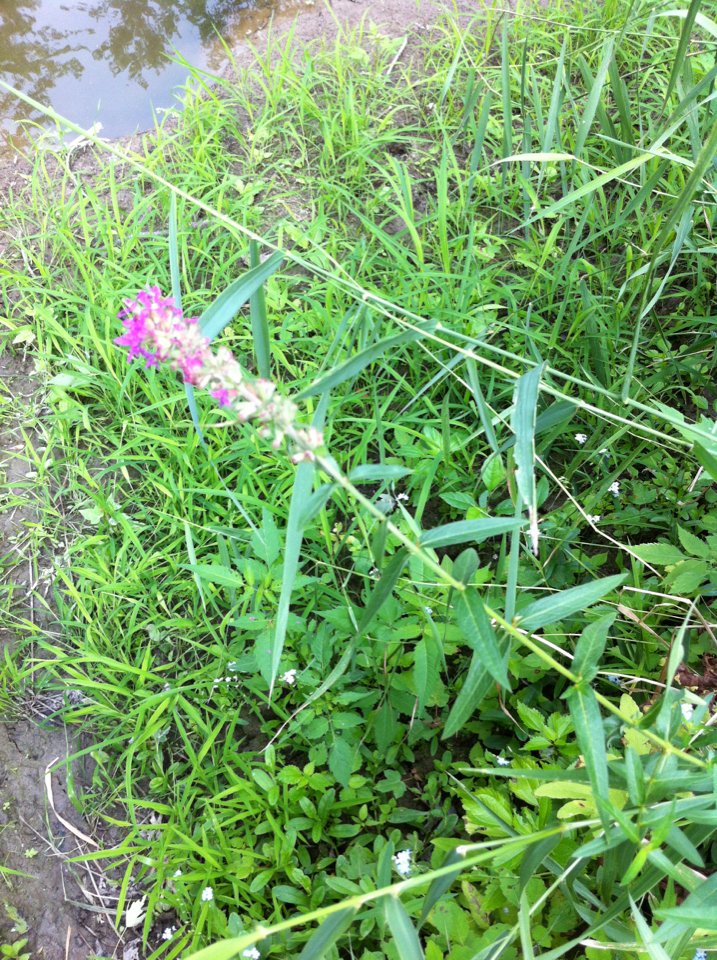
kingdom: Plantae
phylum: Tracheophyta
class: Magnoliopsida
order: Myrtales
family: Lythraceae
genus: Lythrum
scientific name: Lythrum salicaria
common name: Purple loosestrife
